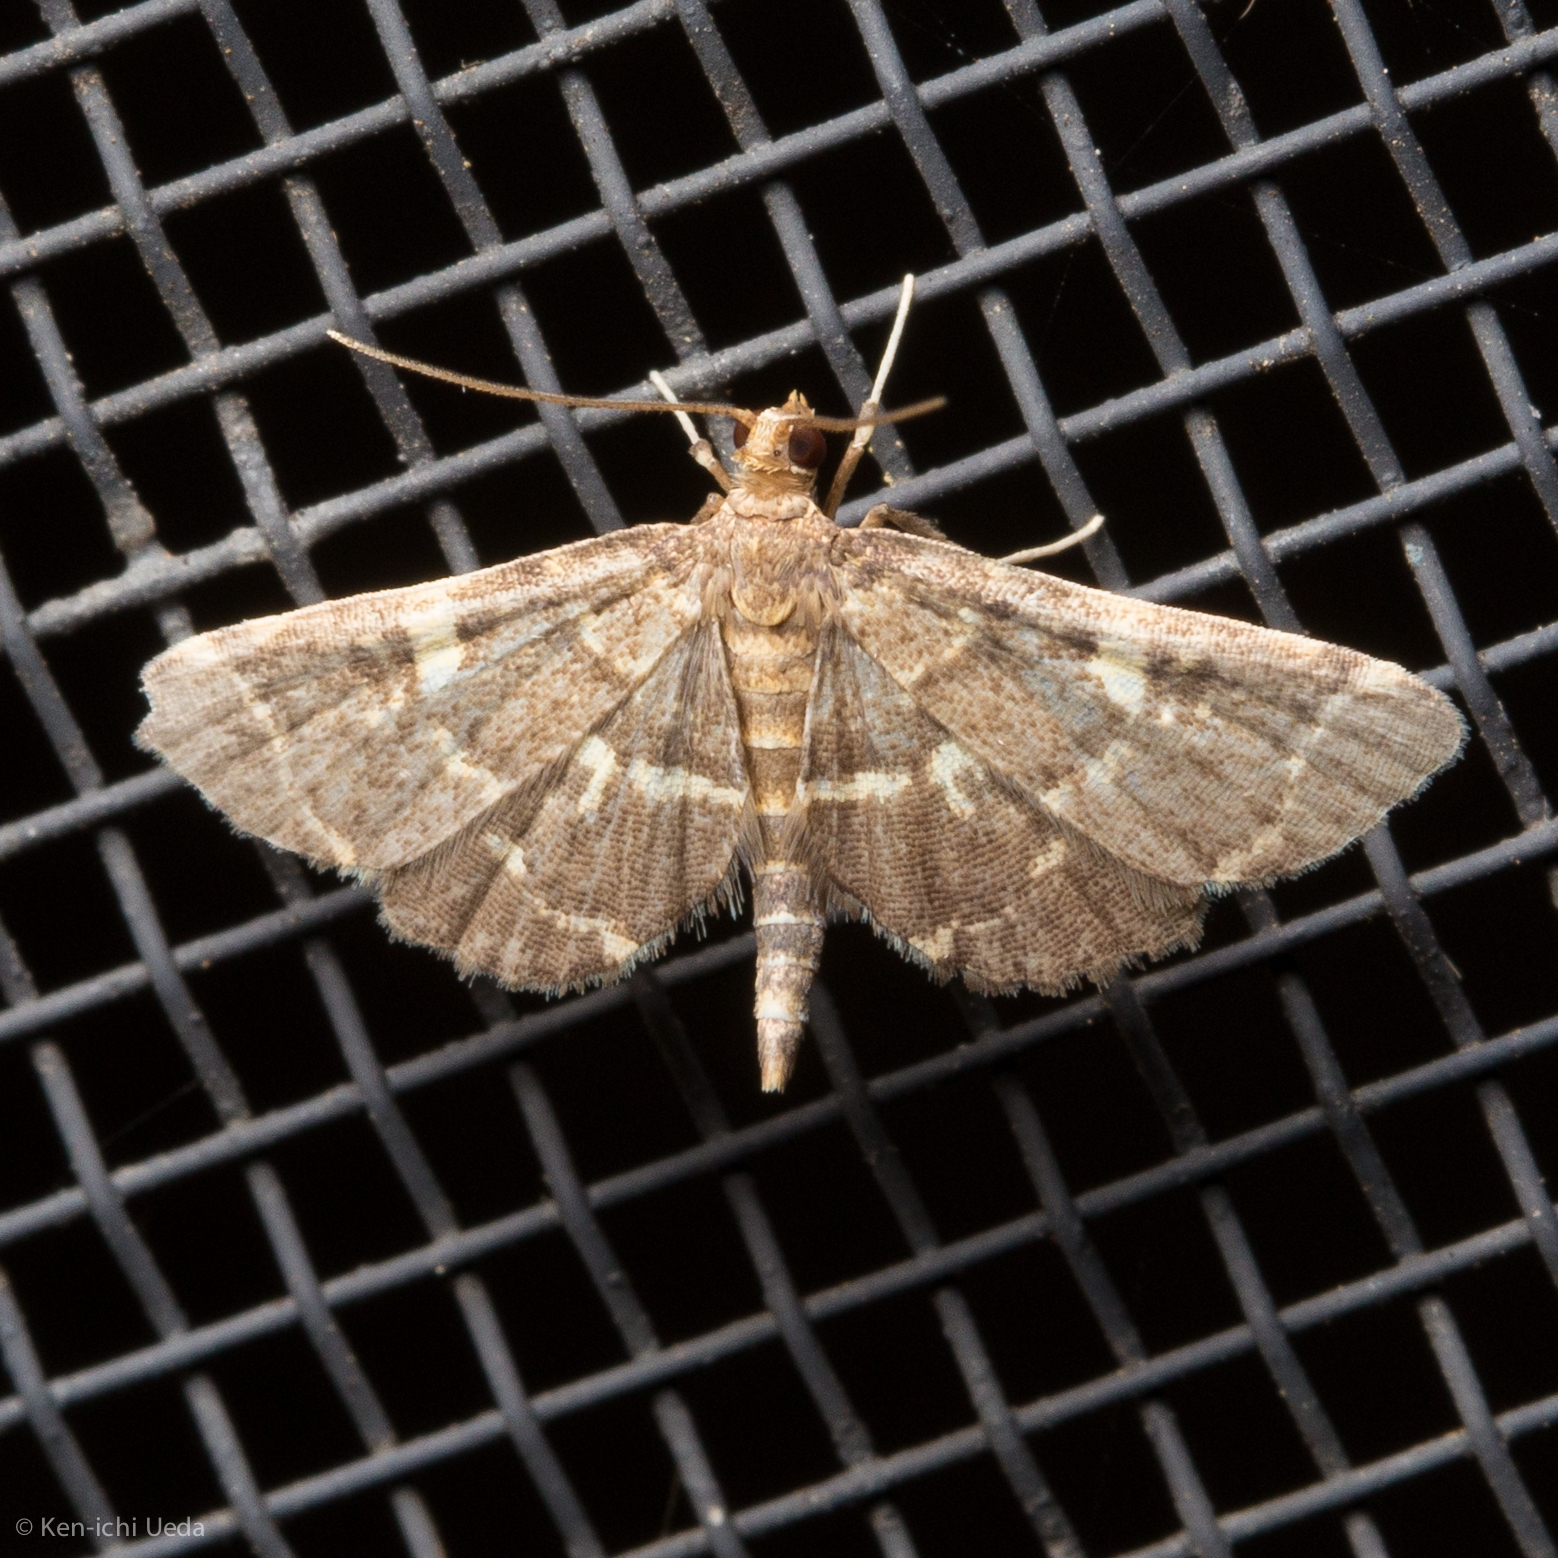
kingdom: Animalia
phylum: Arthropoda
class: Insecta
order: Lepidoptera
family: Crambidae
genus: Anageshna
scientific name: Anageshna primordialis
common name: Yellow-spotted webworm moth
